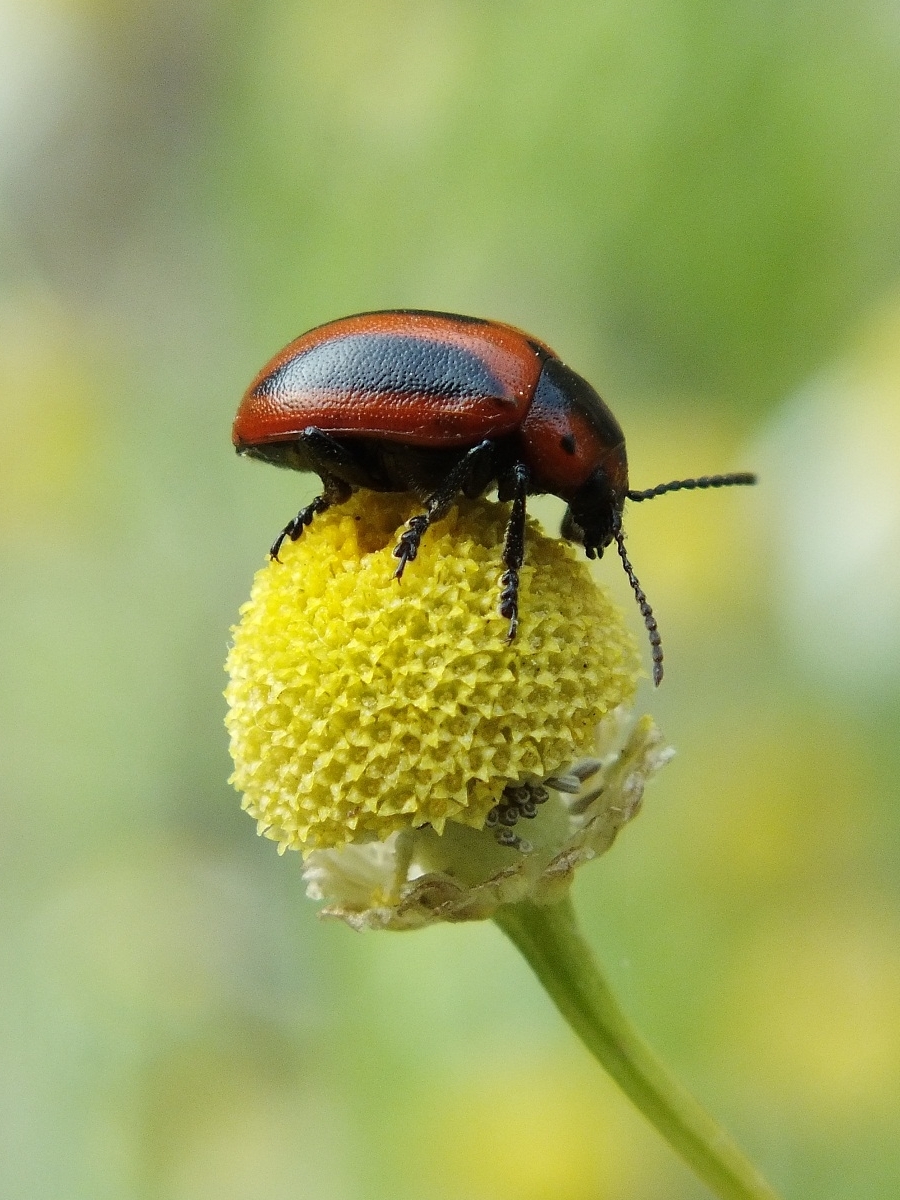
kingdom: Animalia
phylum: Arthropoda
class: Insecta
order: Coleoptera
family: Chrysomelidae
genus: Entomoscelis
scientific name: Entomoscelis adonidis
